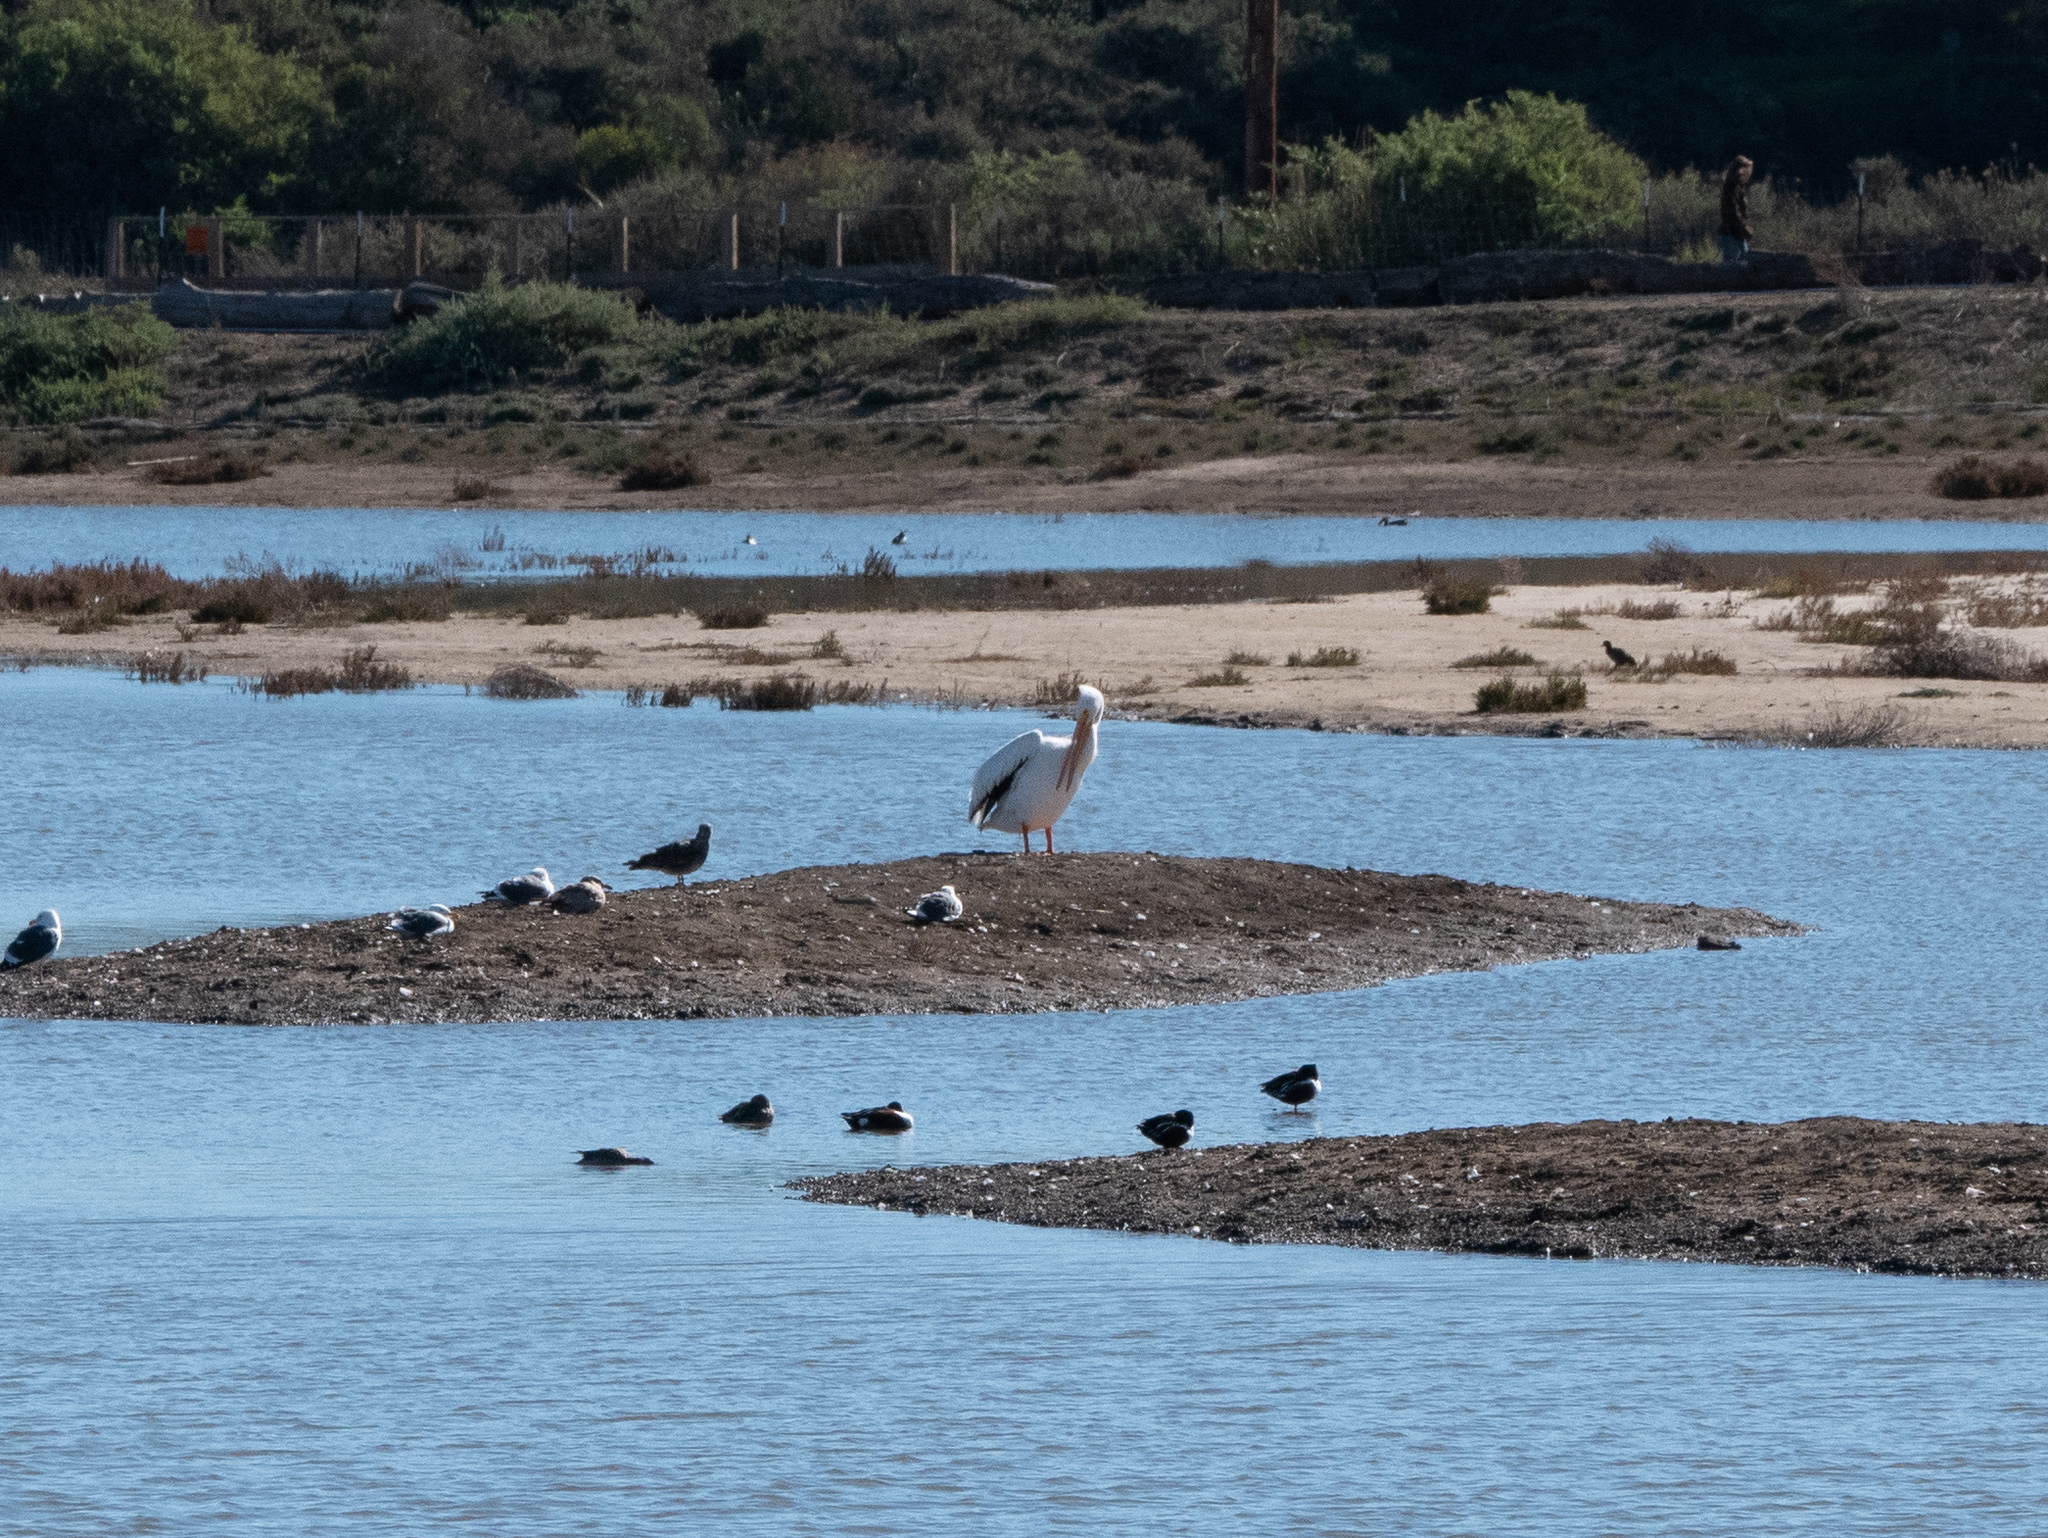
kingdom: Animalia
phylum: Chordata
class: Aves
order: Pelecaniformes
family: Pelecanidae
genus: Pelecanus
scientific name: Pelecanus erythrorhynchos
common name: American white pelican
